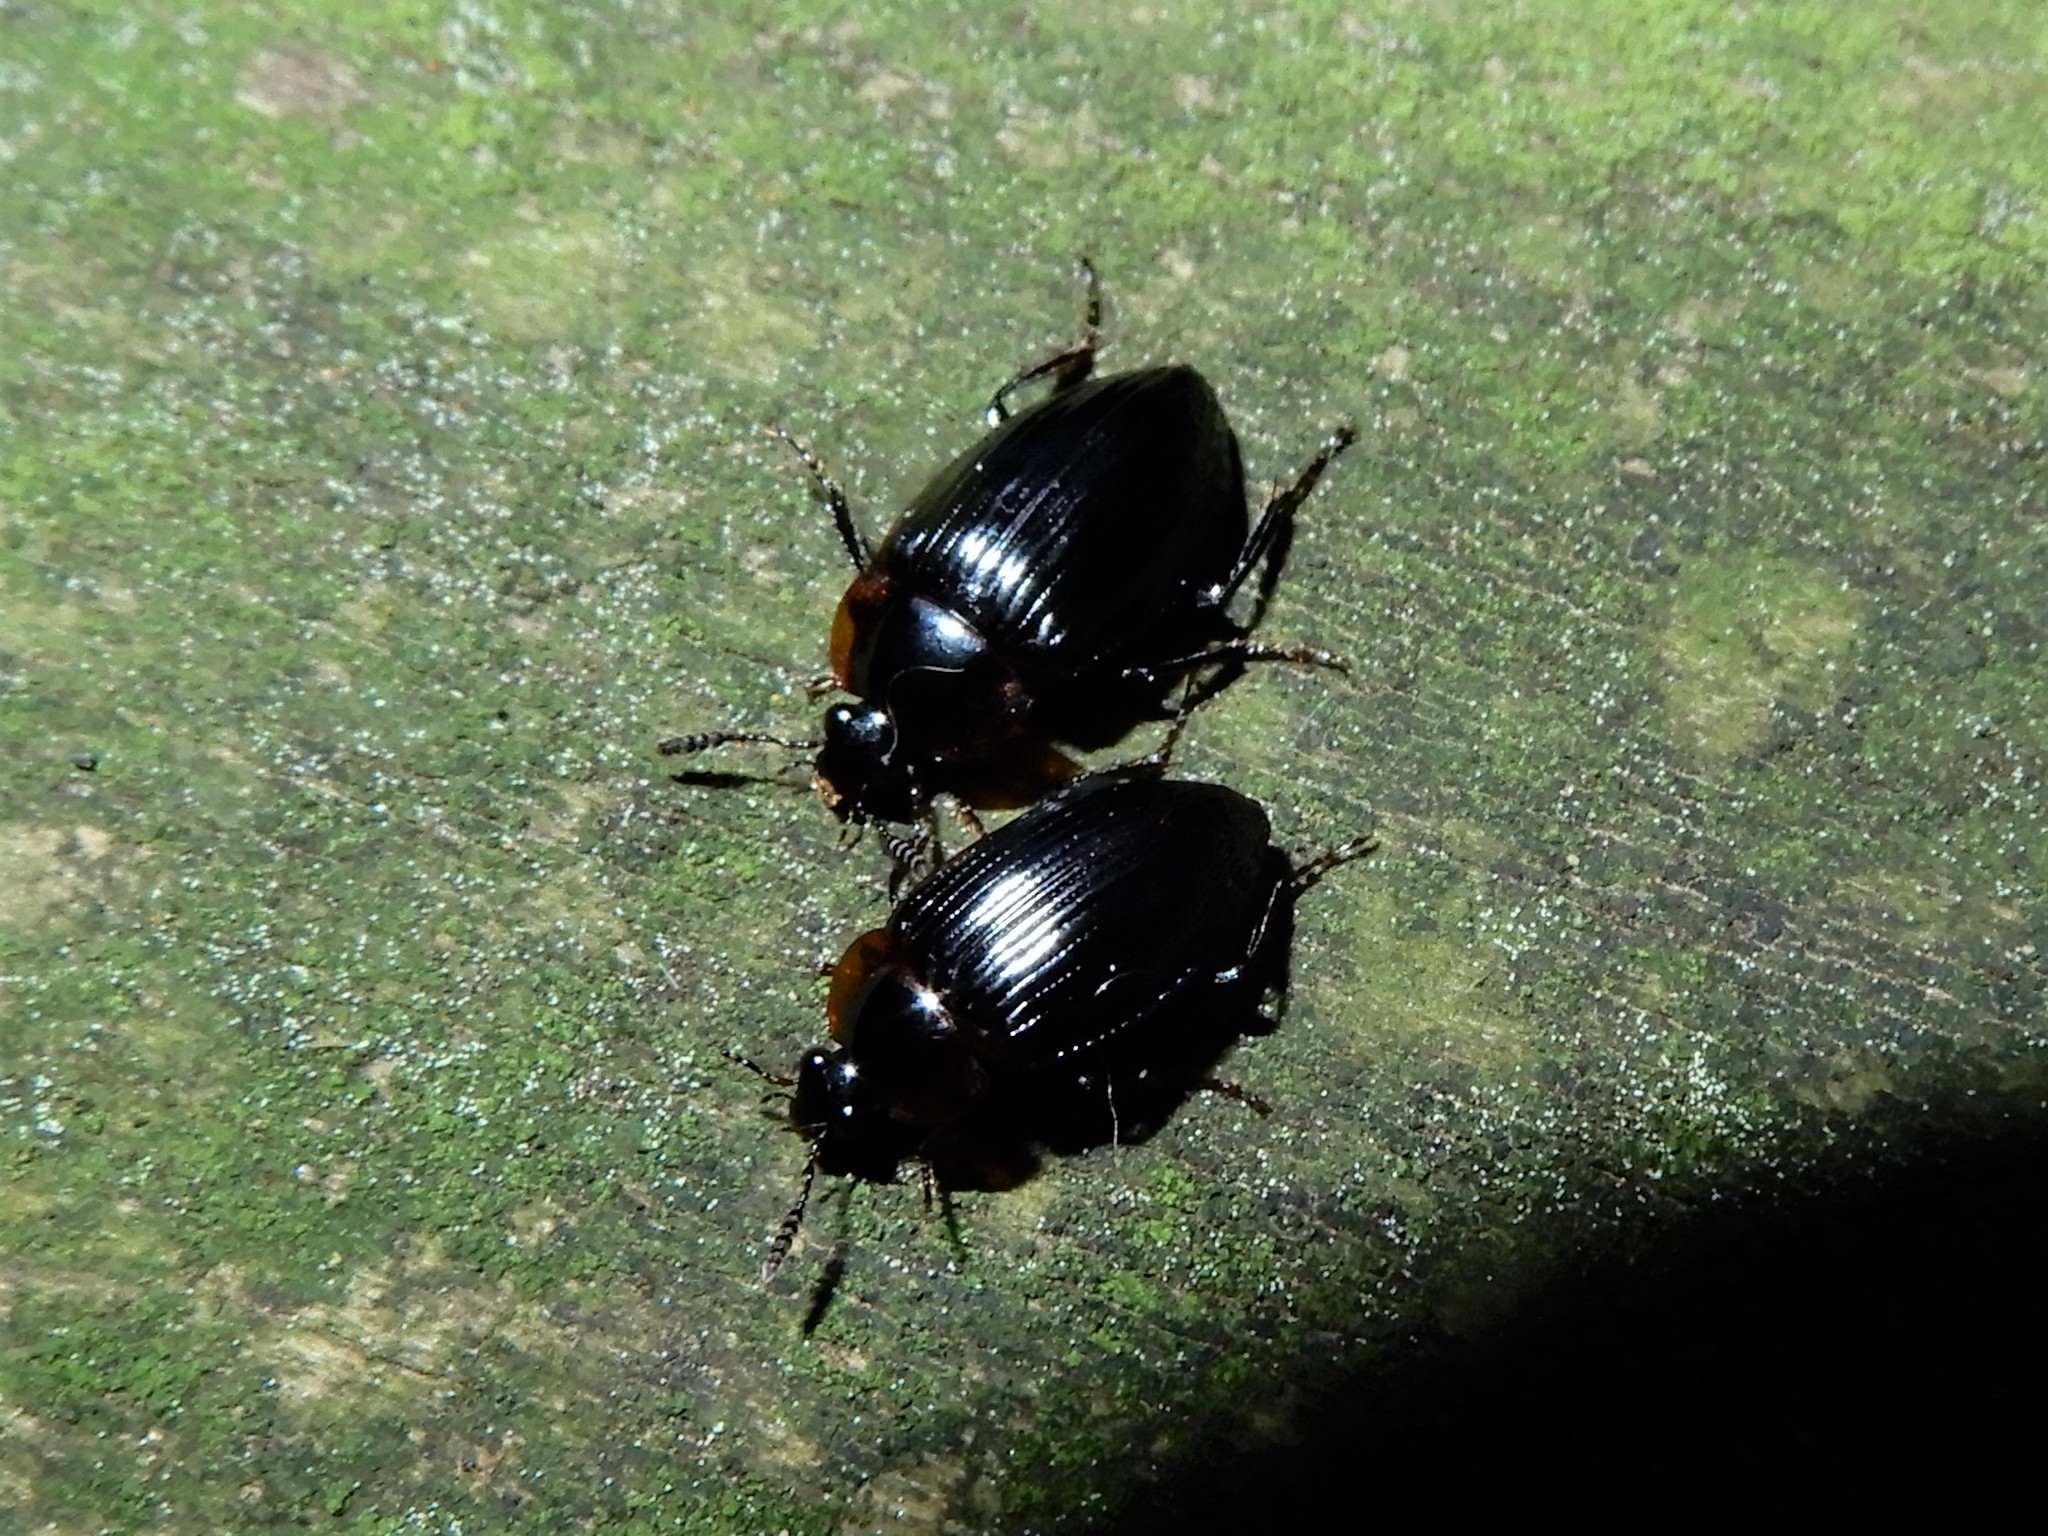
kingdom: Animalia
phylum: Arthropoda
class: Insecta
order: Coleoptera
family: Agyrtidae
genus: Zeanecrophilus
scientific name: Zeanecrophilus thayerae
